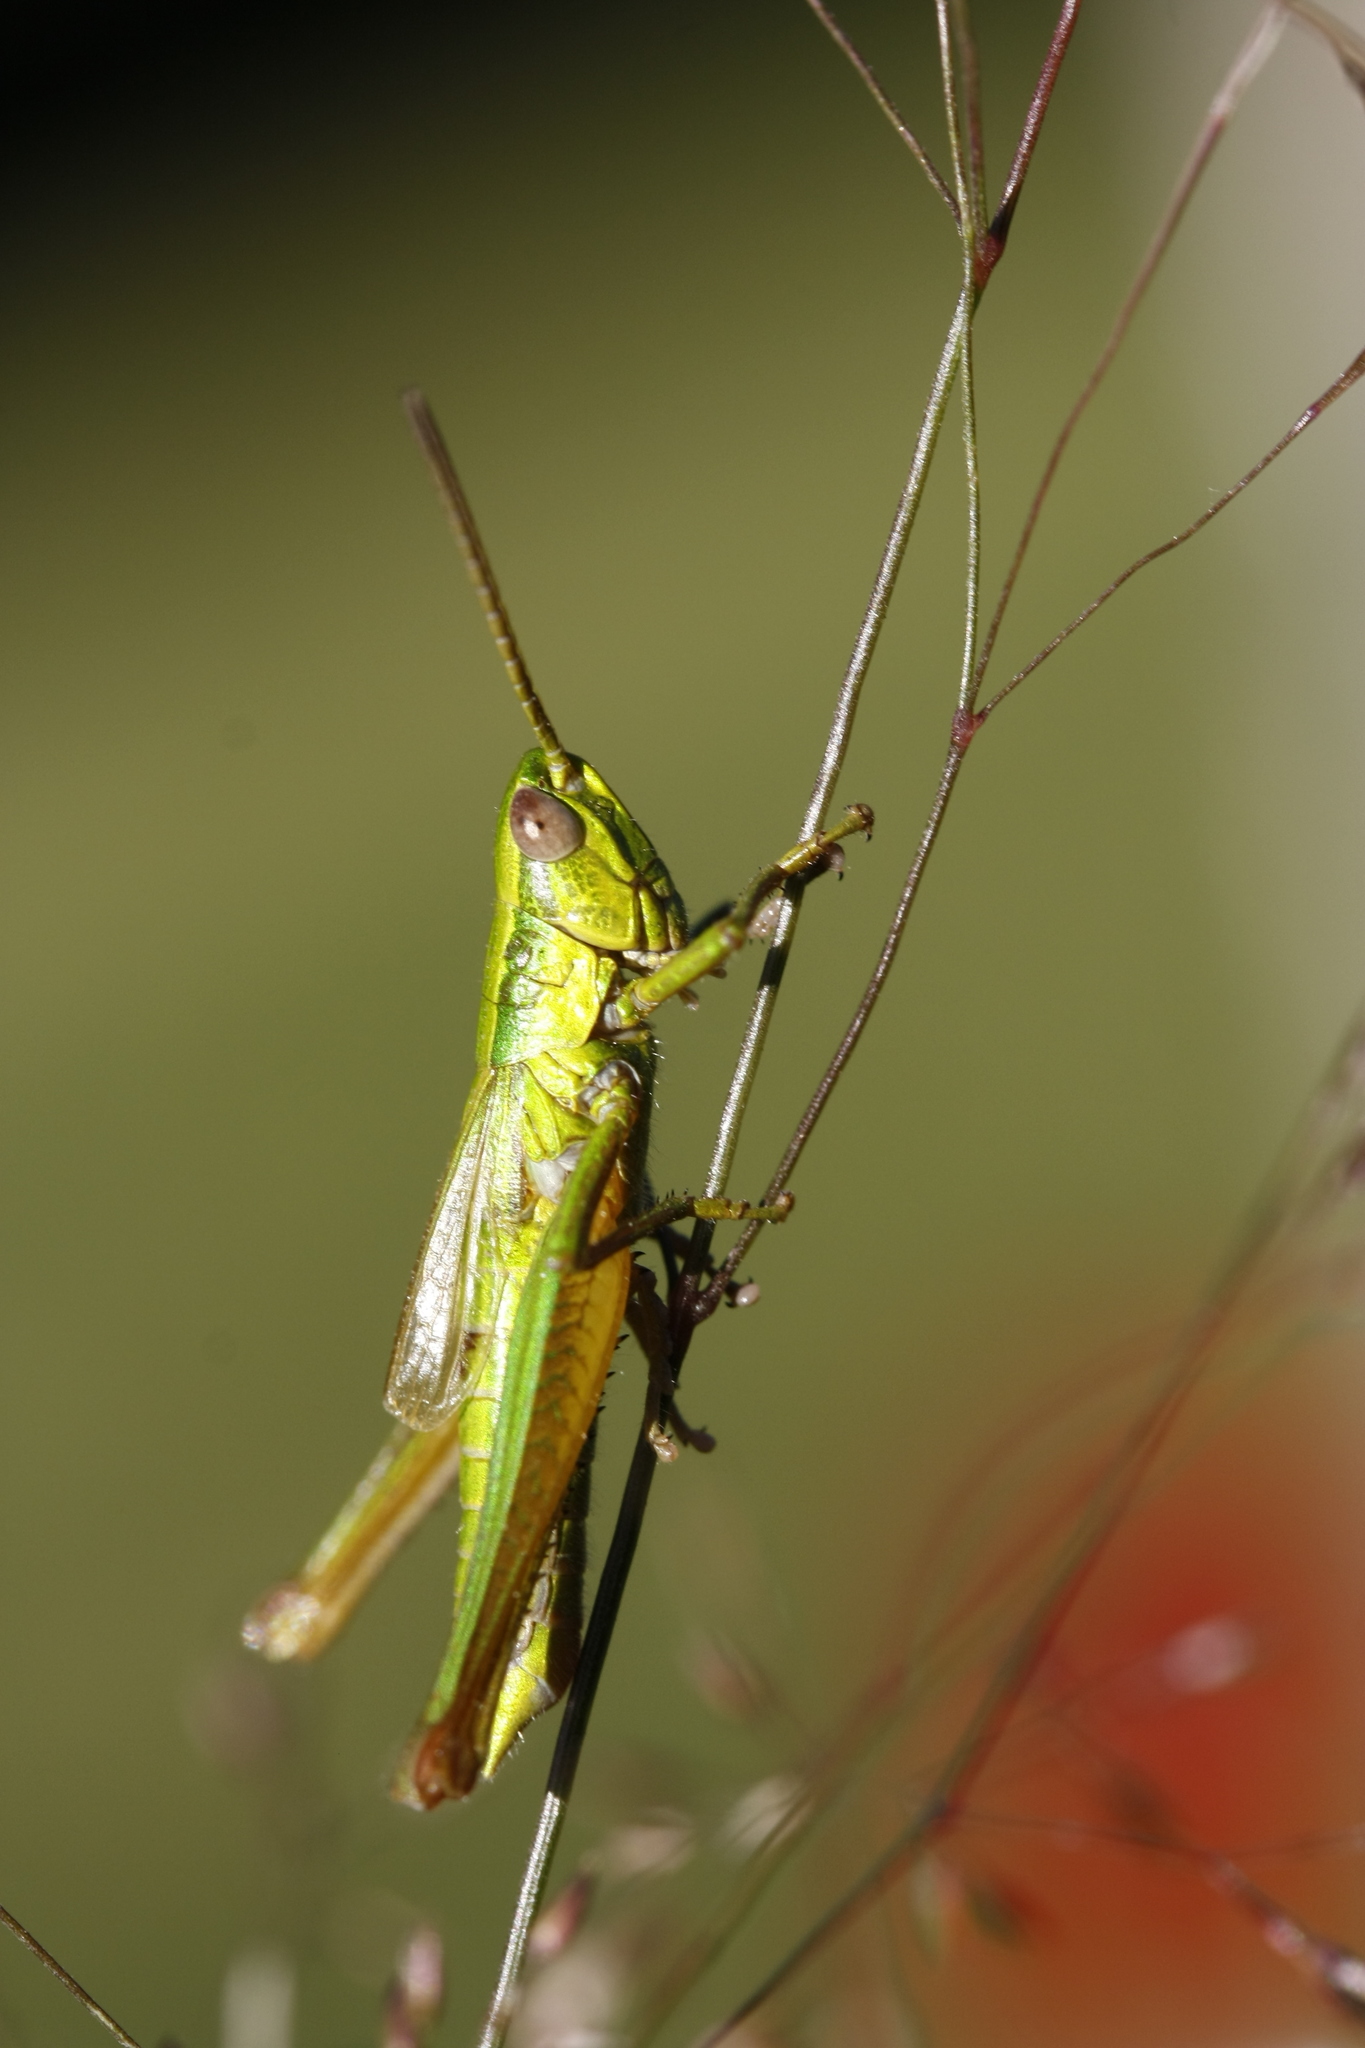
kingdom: Animalia
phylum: Arthropoda
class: Insecta
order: Orthoptera
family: Acrididae
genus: Euthystira
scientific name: Euthystira brachyptera
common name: Small gold grasshopper
